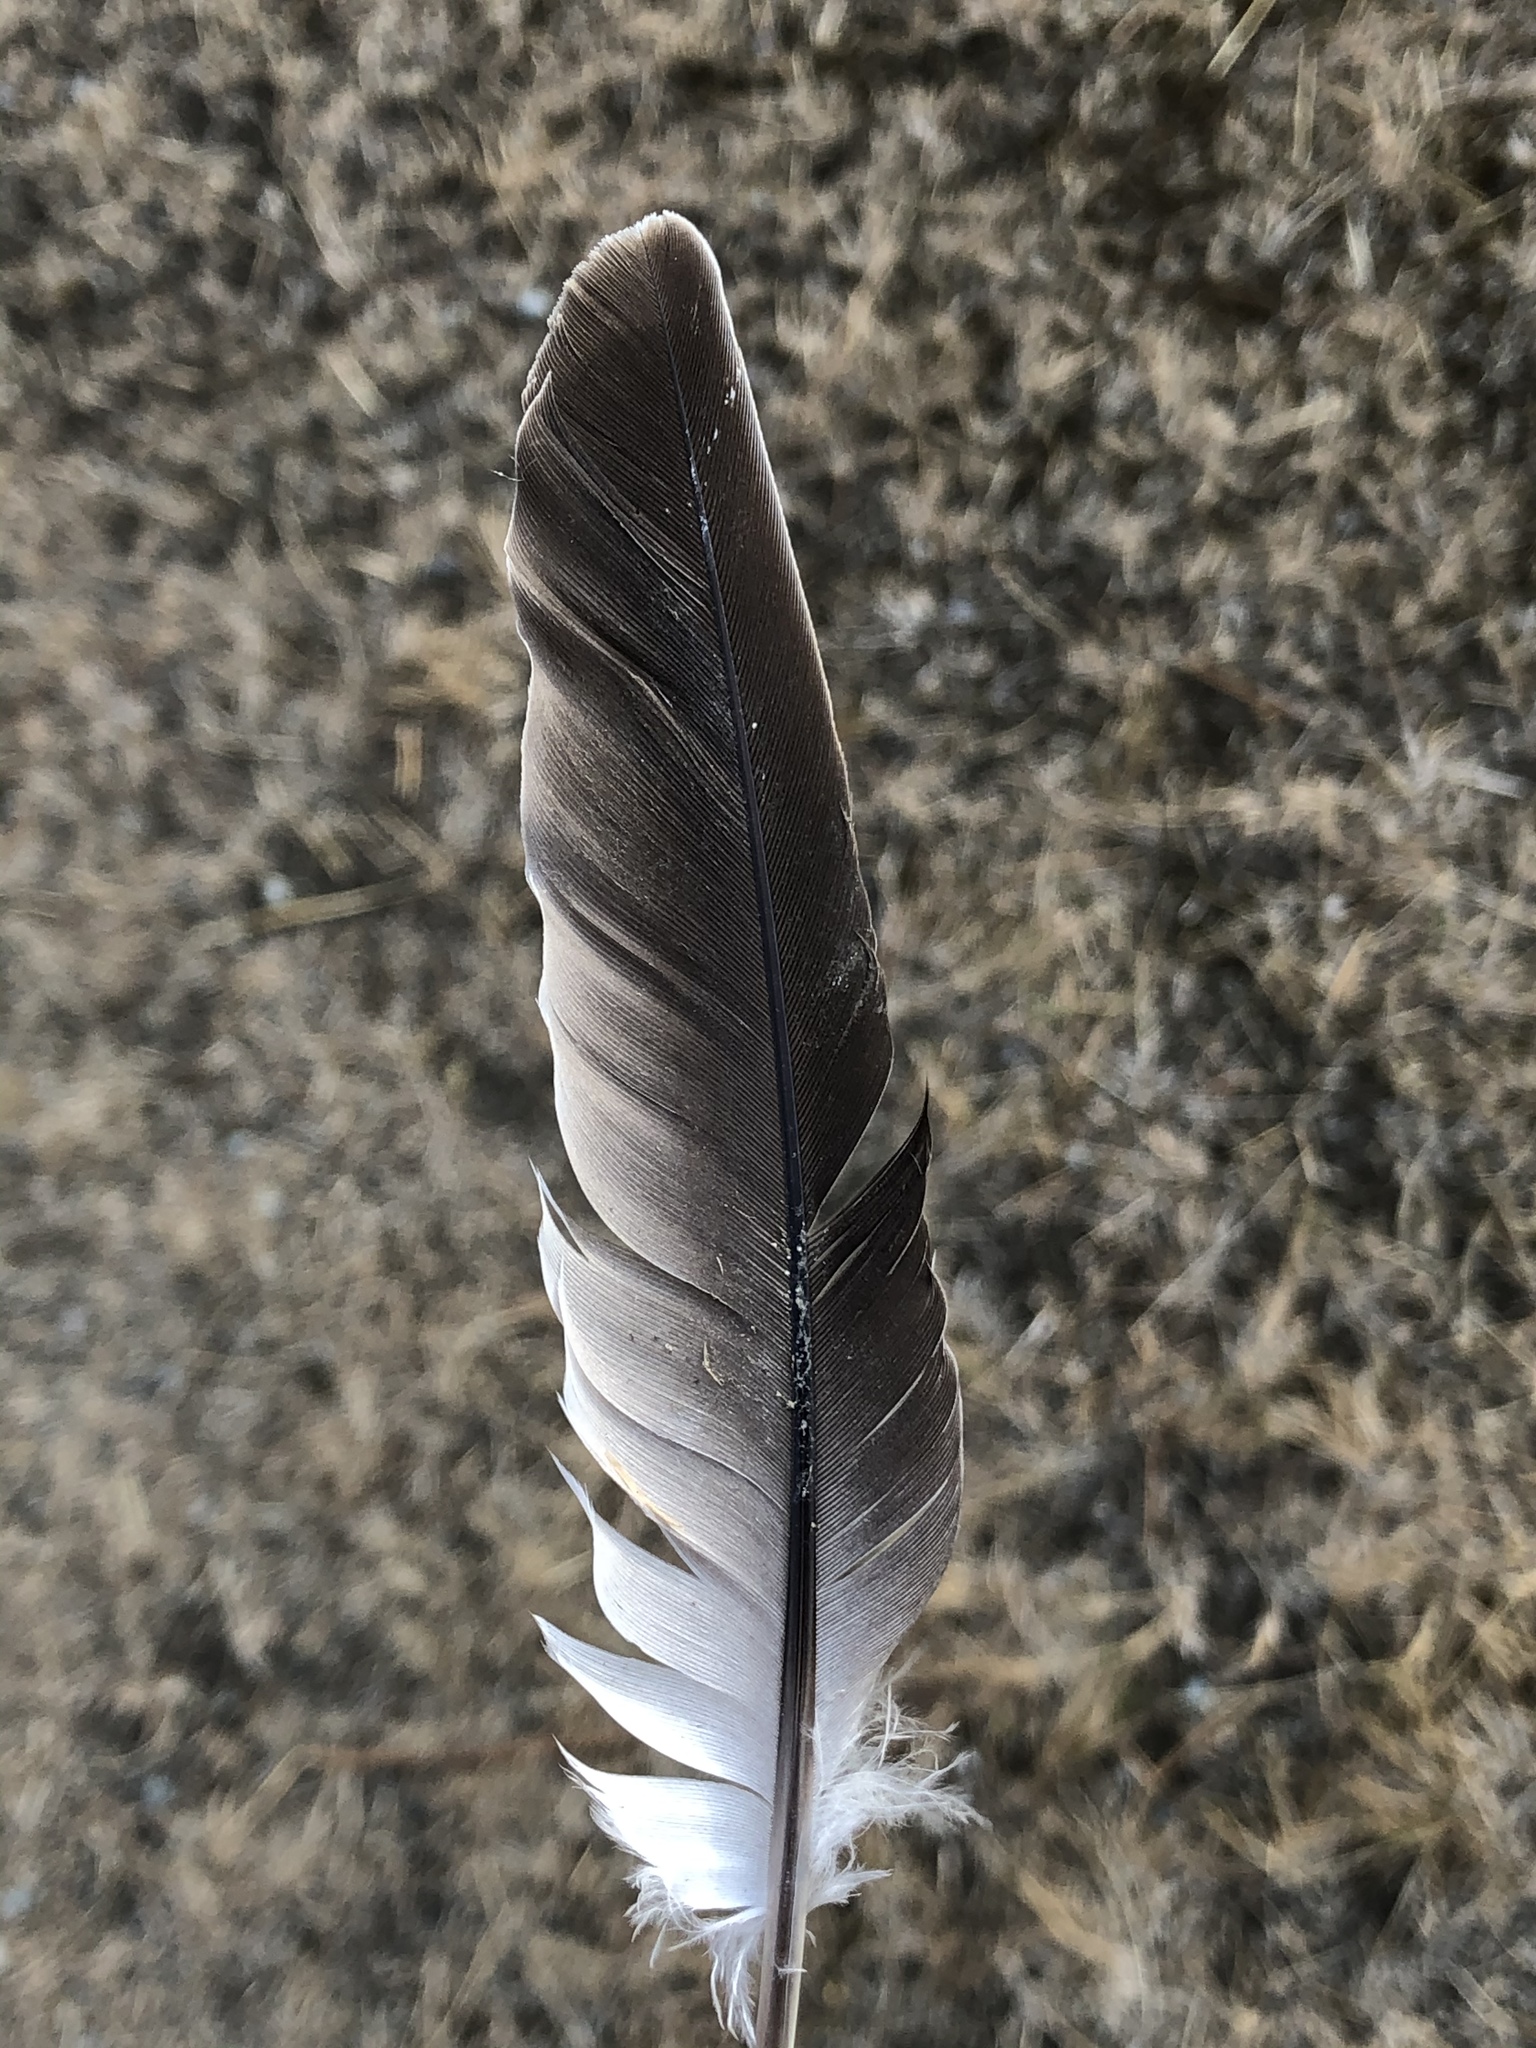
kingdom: Animalia
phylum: Chordata
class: Aves
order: Columbiformes
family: Columbidae
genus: Streptopelia
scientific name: Streptopelia decaocto
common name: Eurasian collared dove
